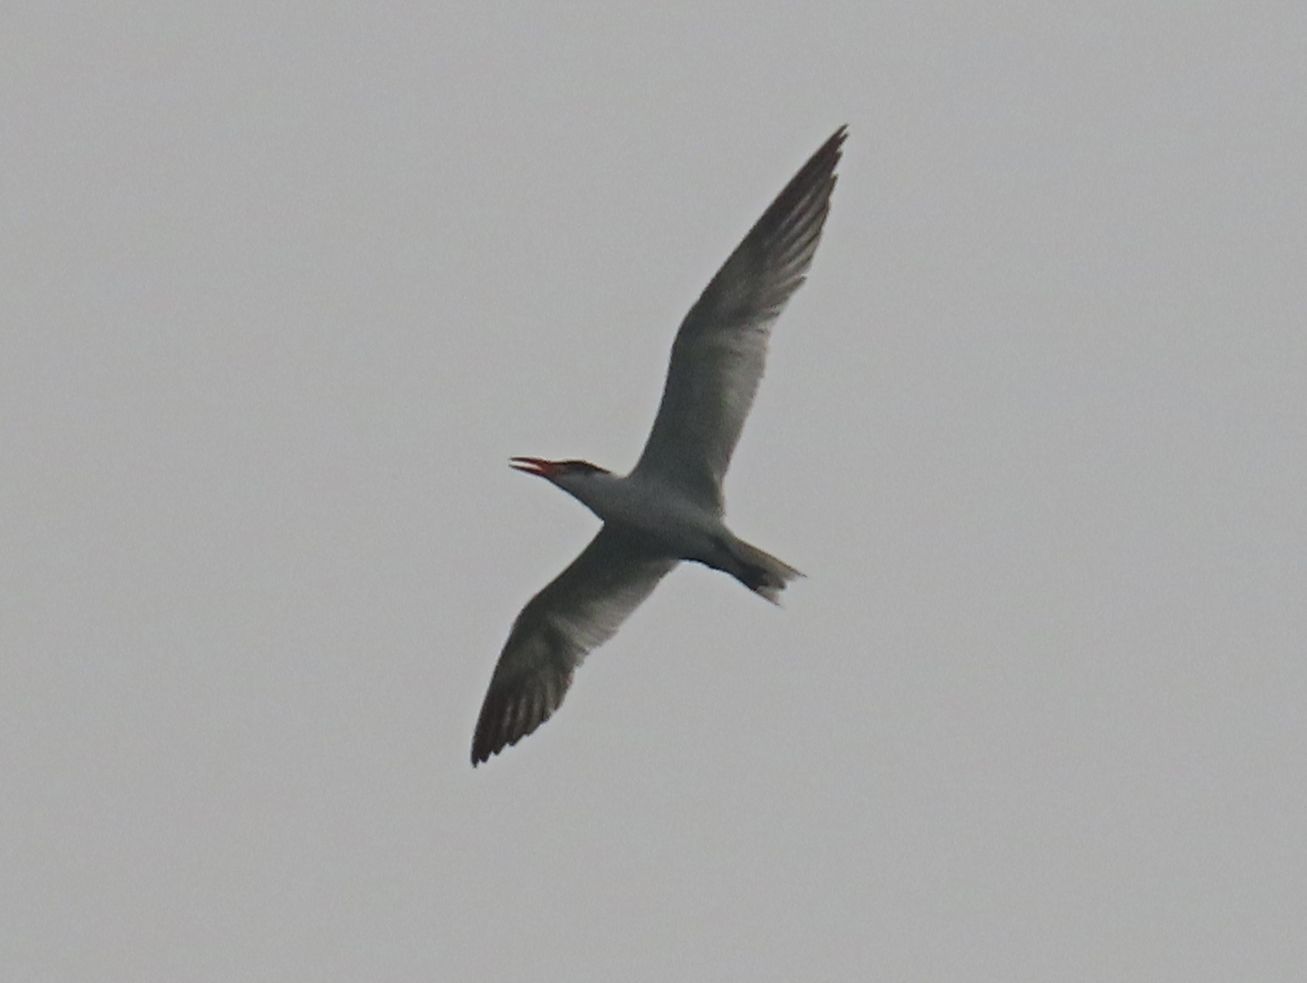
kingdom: Animalia
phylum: Chordata
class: Aves
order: Charadriiformes
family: Laridae
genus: Hydroprogne
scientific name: Hydroprogne caspia
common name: Caspian tern
